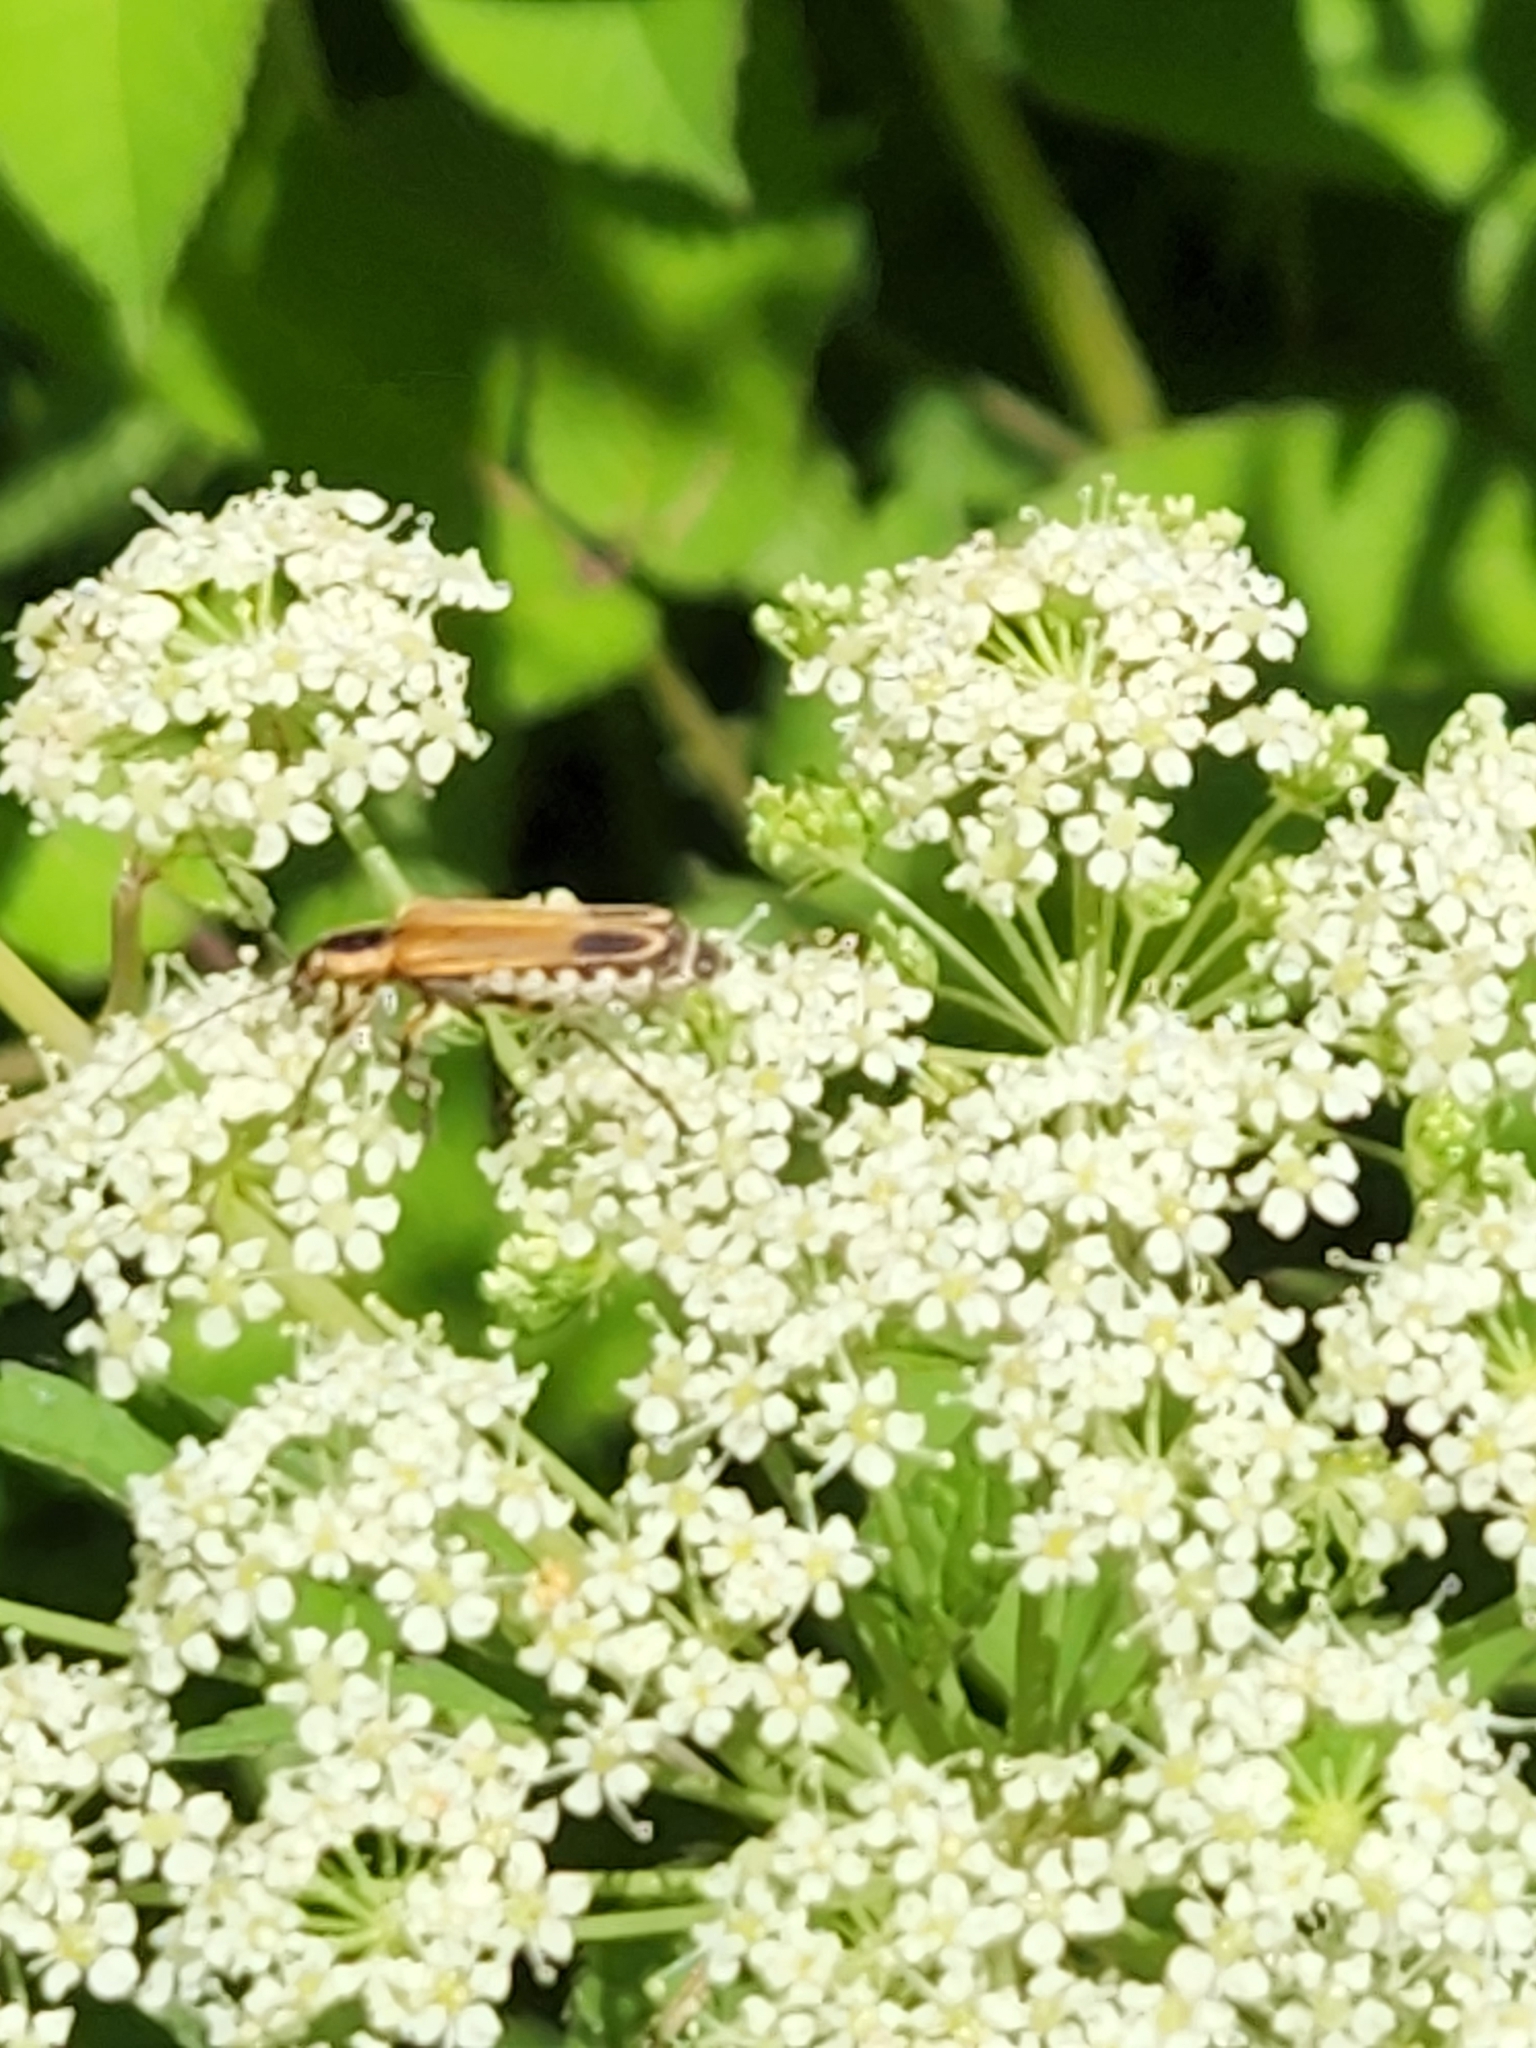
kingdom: Animalia
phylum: Arthropoda
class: Insecta
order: Coleoptera
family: Cantharidae
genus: Chauliognathus
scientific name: Chauliognathus marginatus
